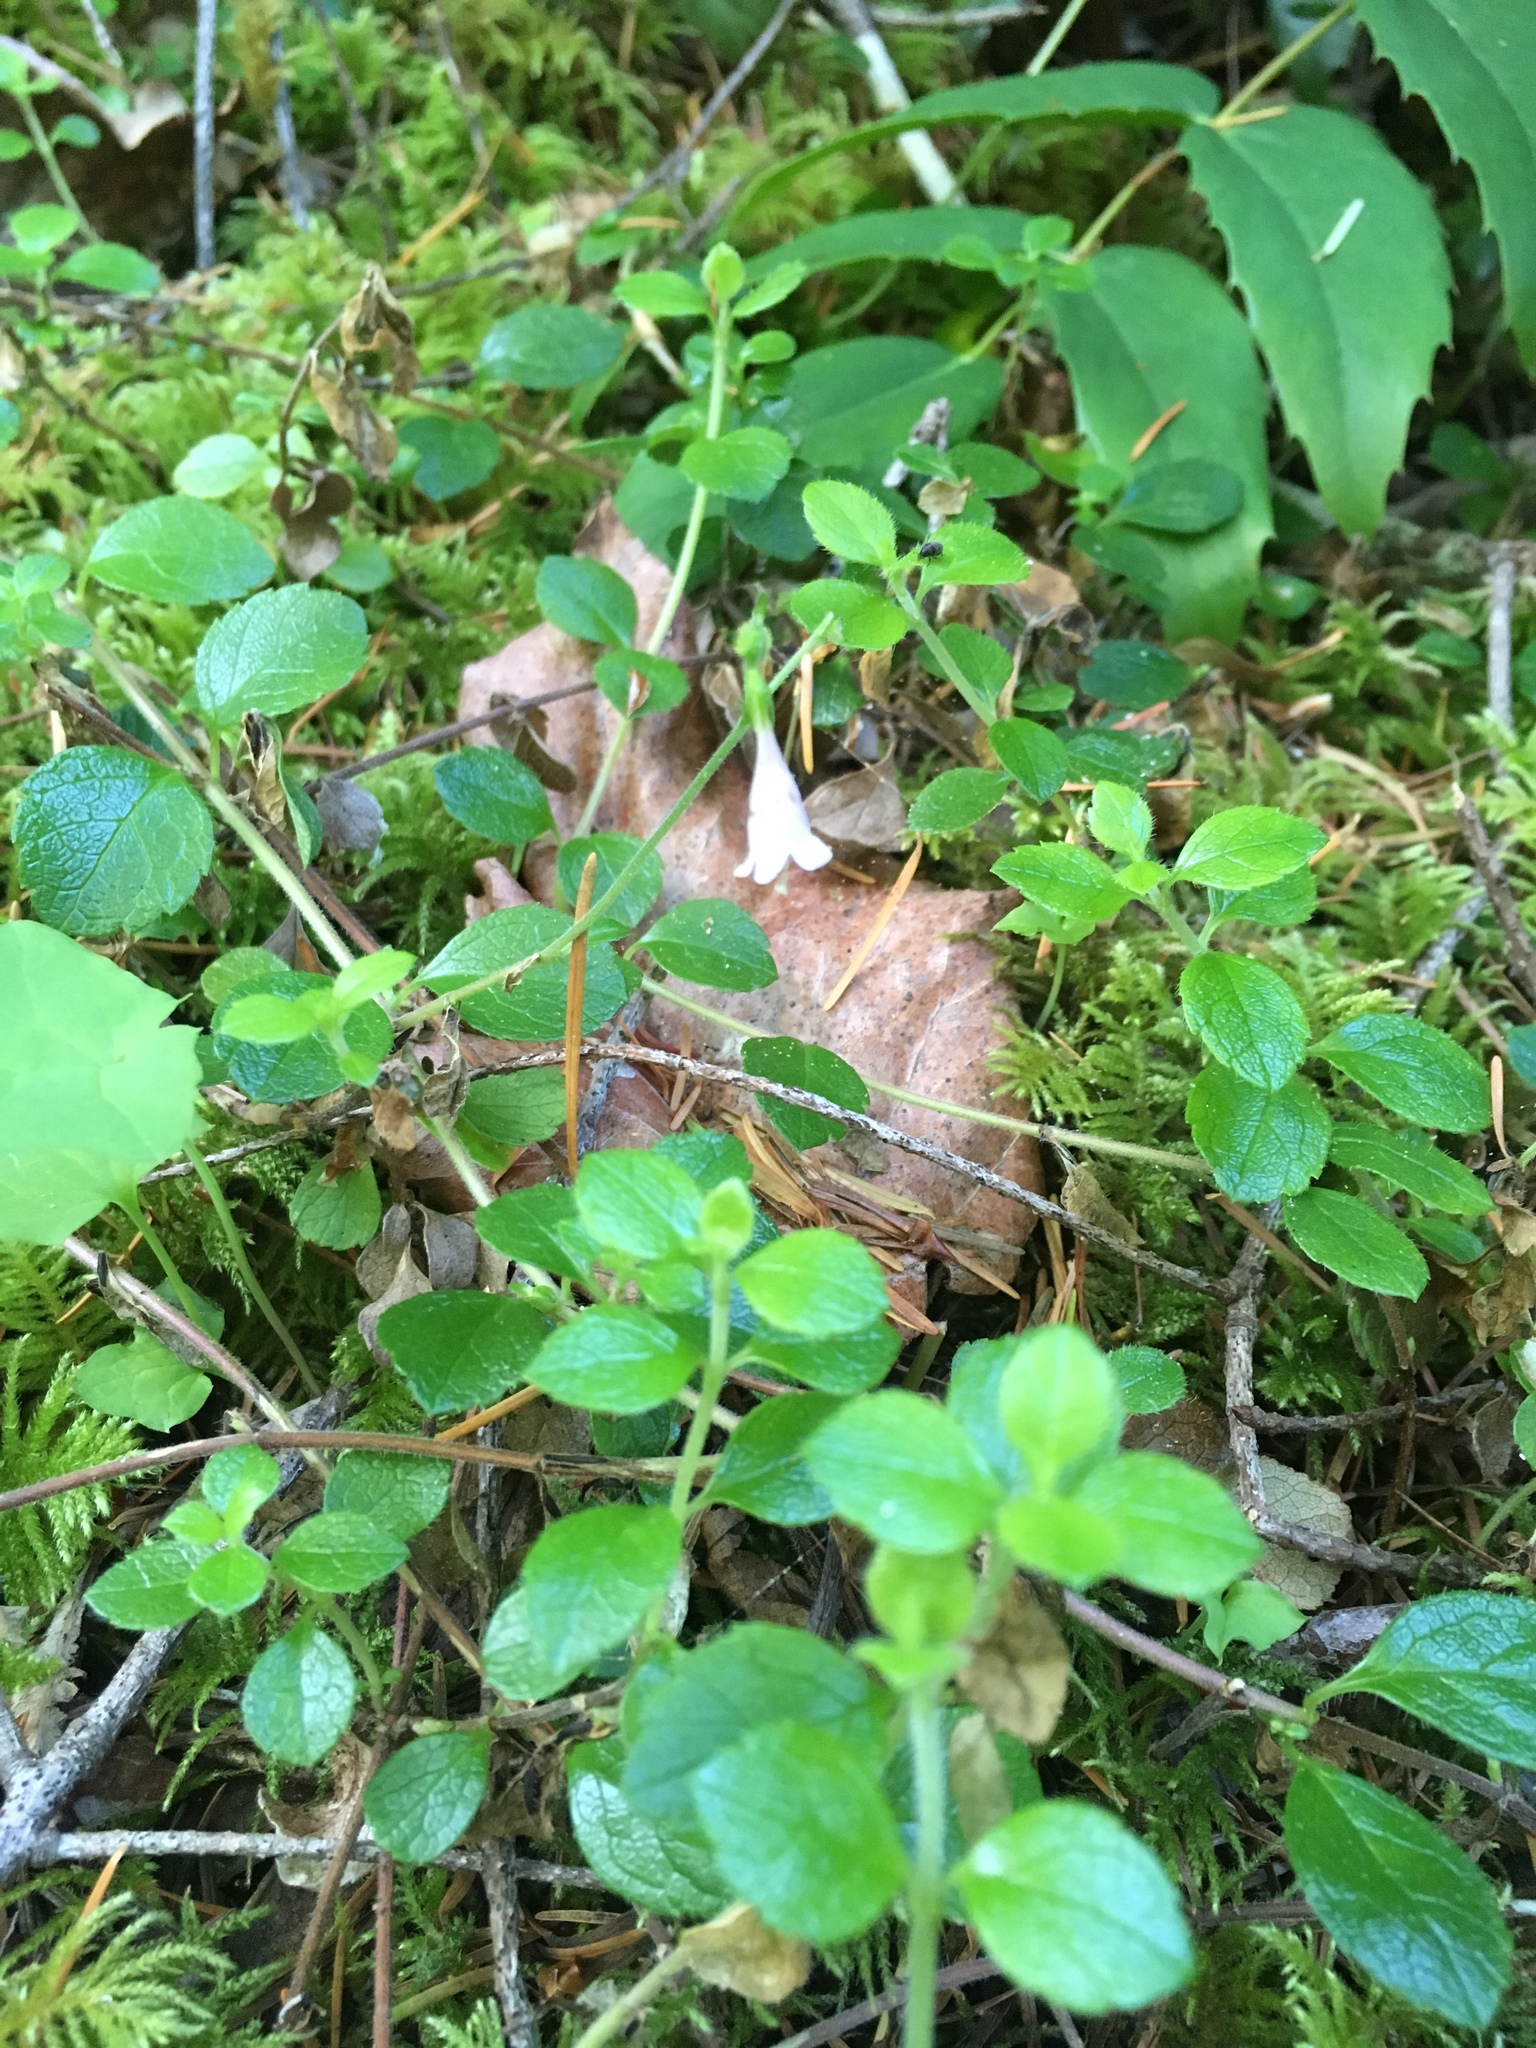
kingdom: Plantae
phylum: Tracheophyta
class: Magnoliopsida
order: Dipsacales
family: Caprifoliaceae
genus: Linnaea
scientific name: Linnaea borealis
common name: Twinflower
